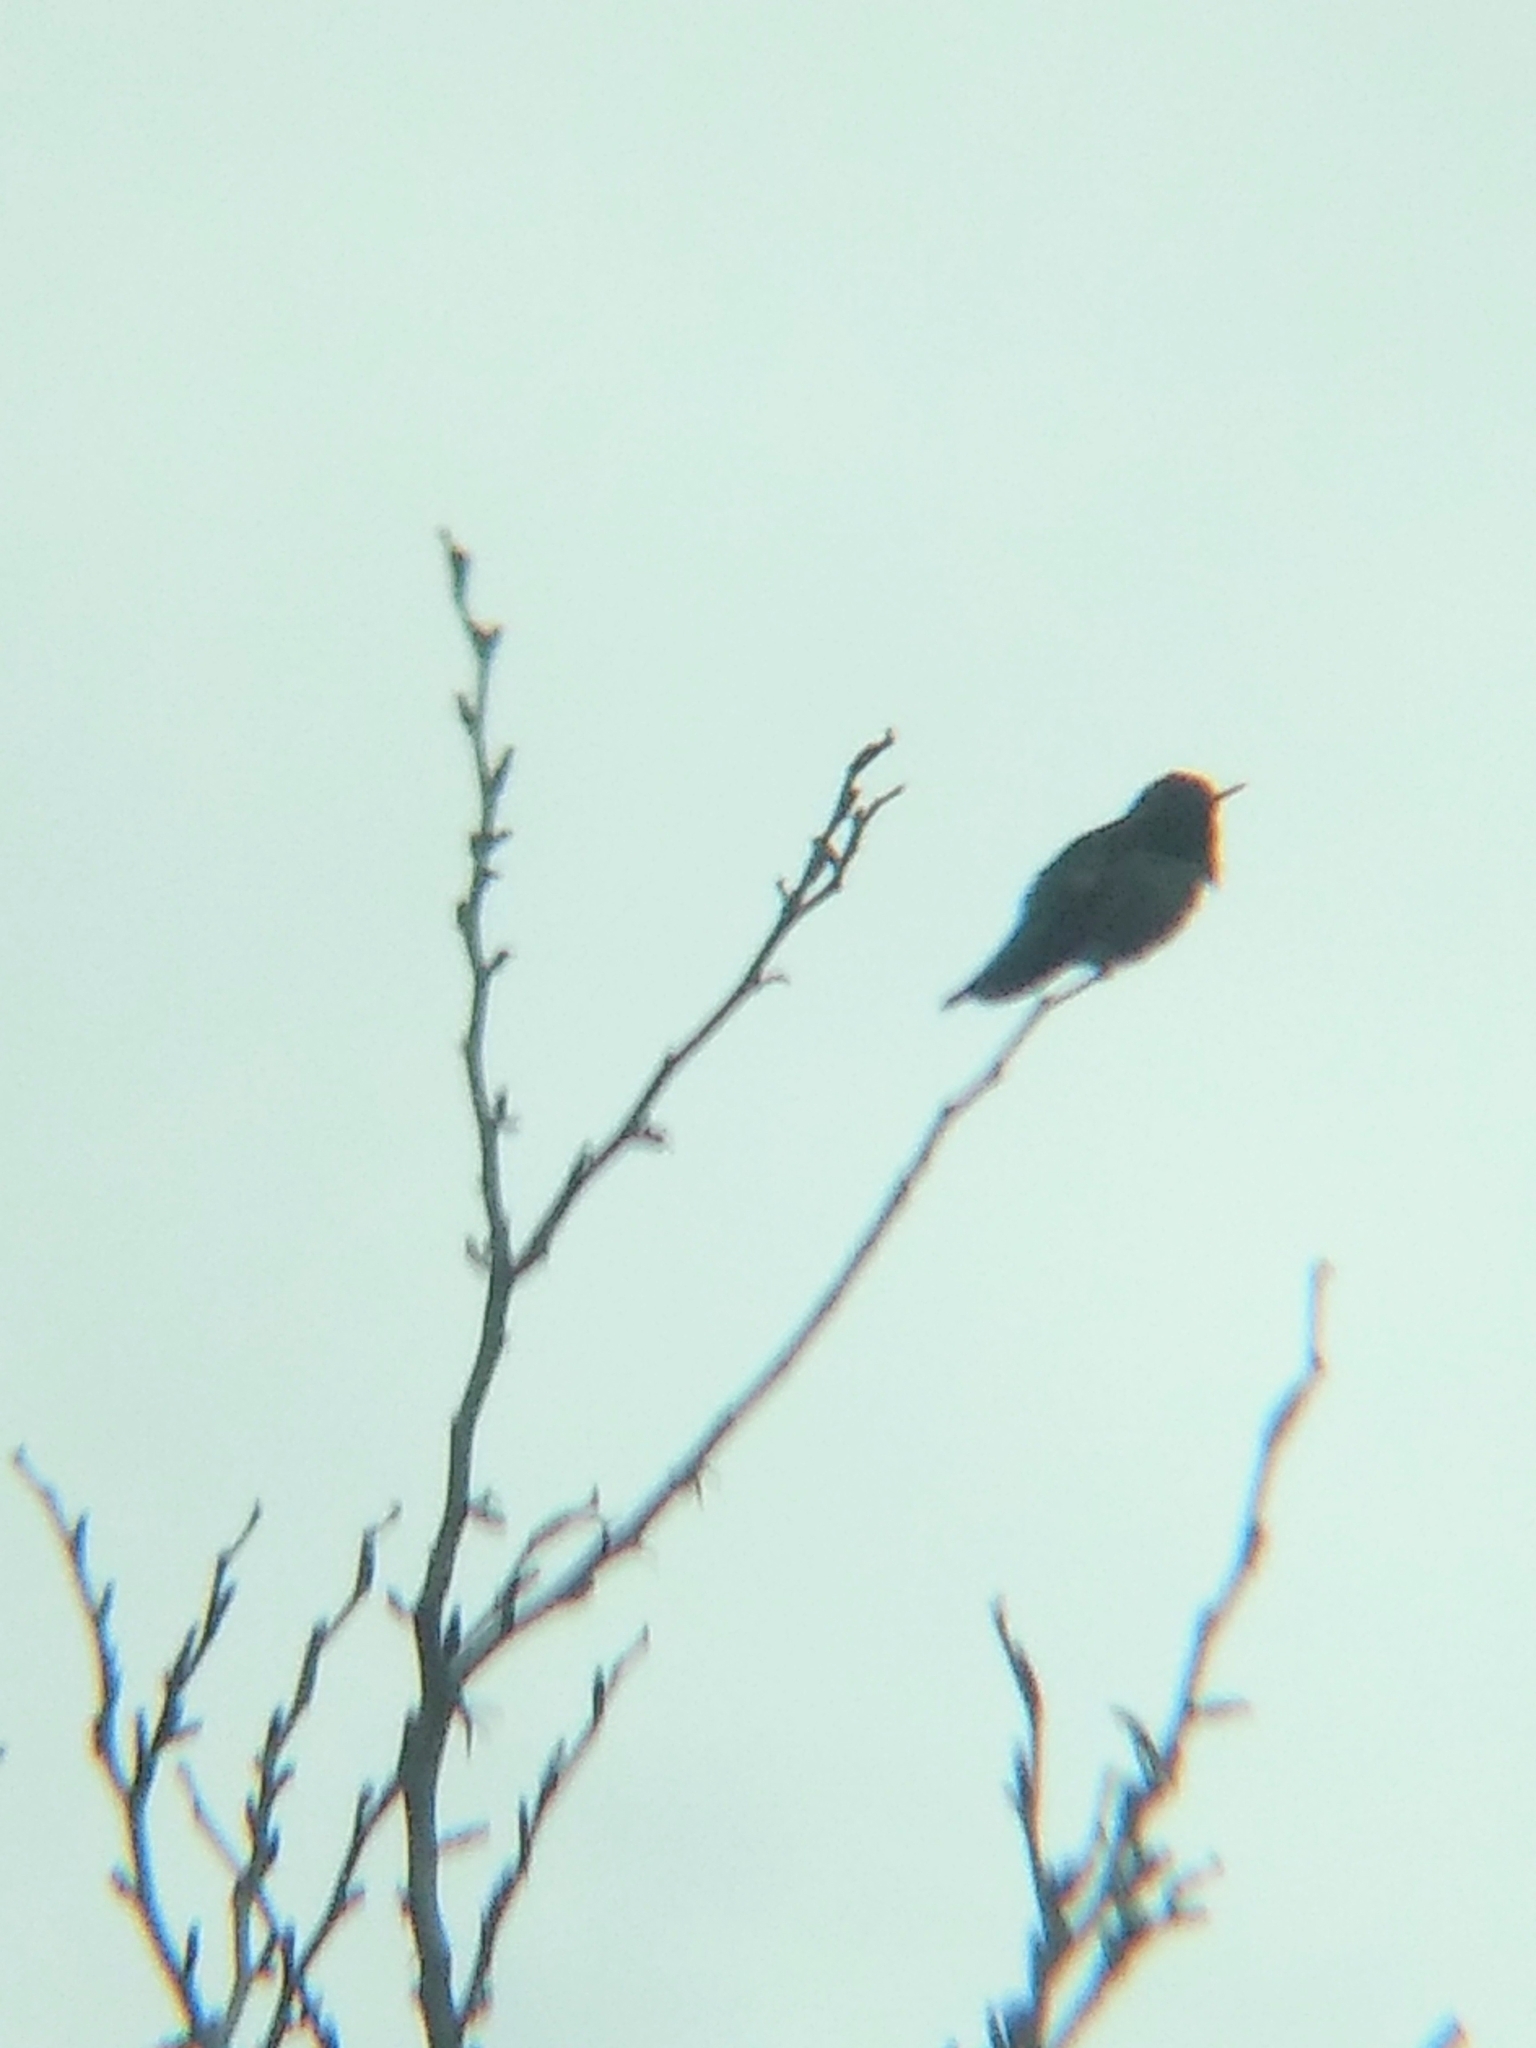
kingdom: Animalia
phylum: Chordata
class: Aves
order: Apodiformes
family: Trochilidae
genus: Calypte
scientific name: Calypte anna
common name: Anna's hummingbird
